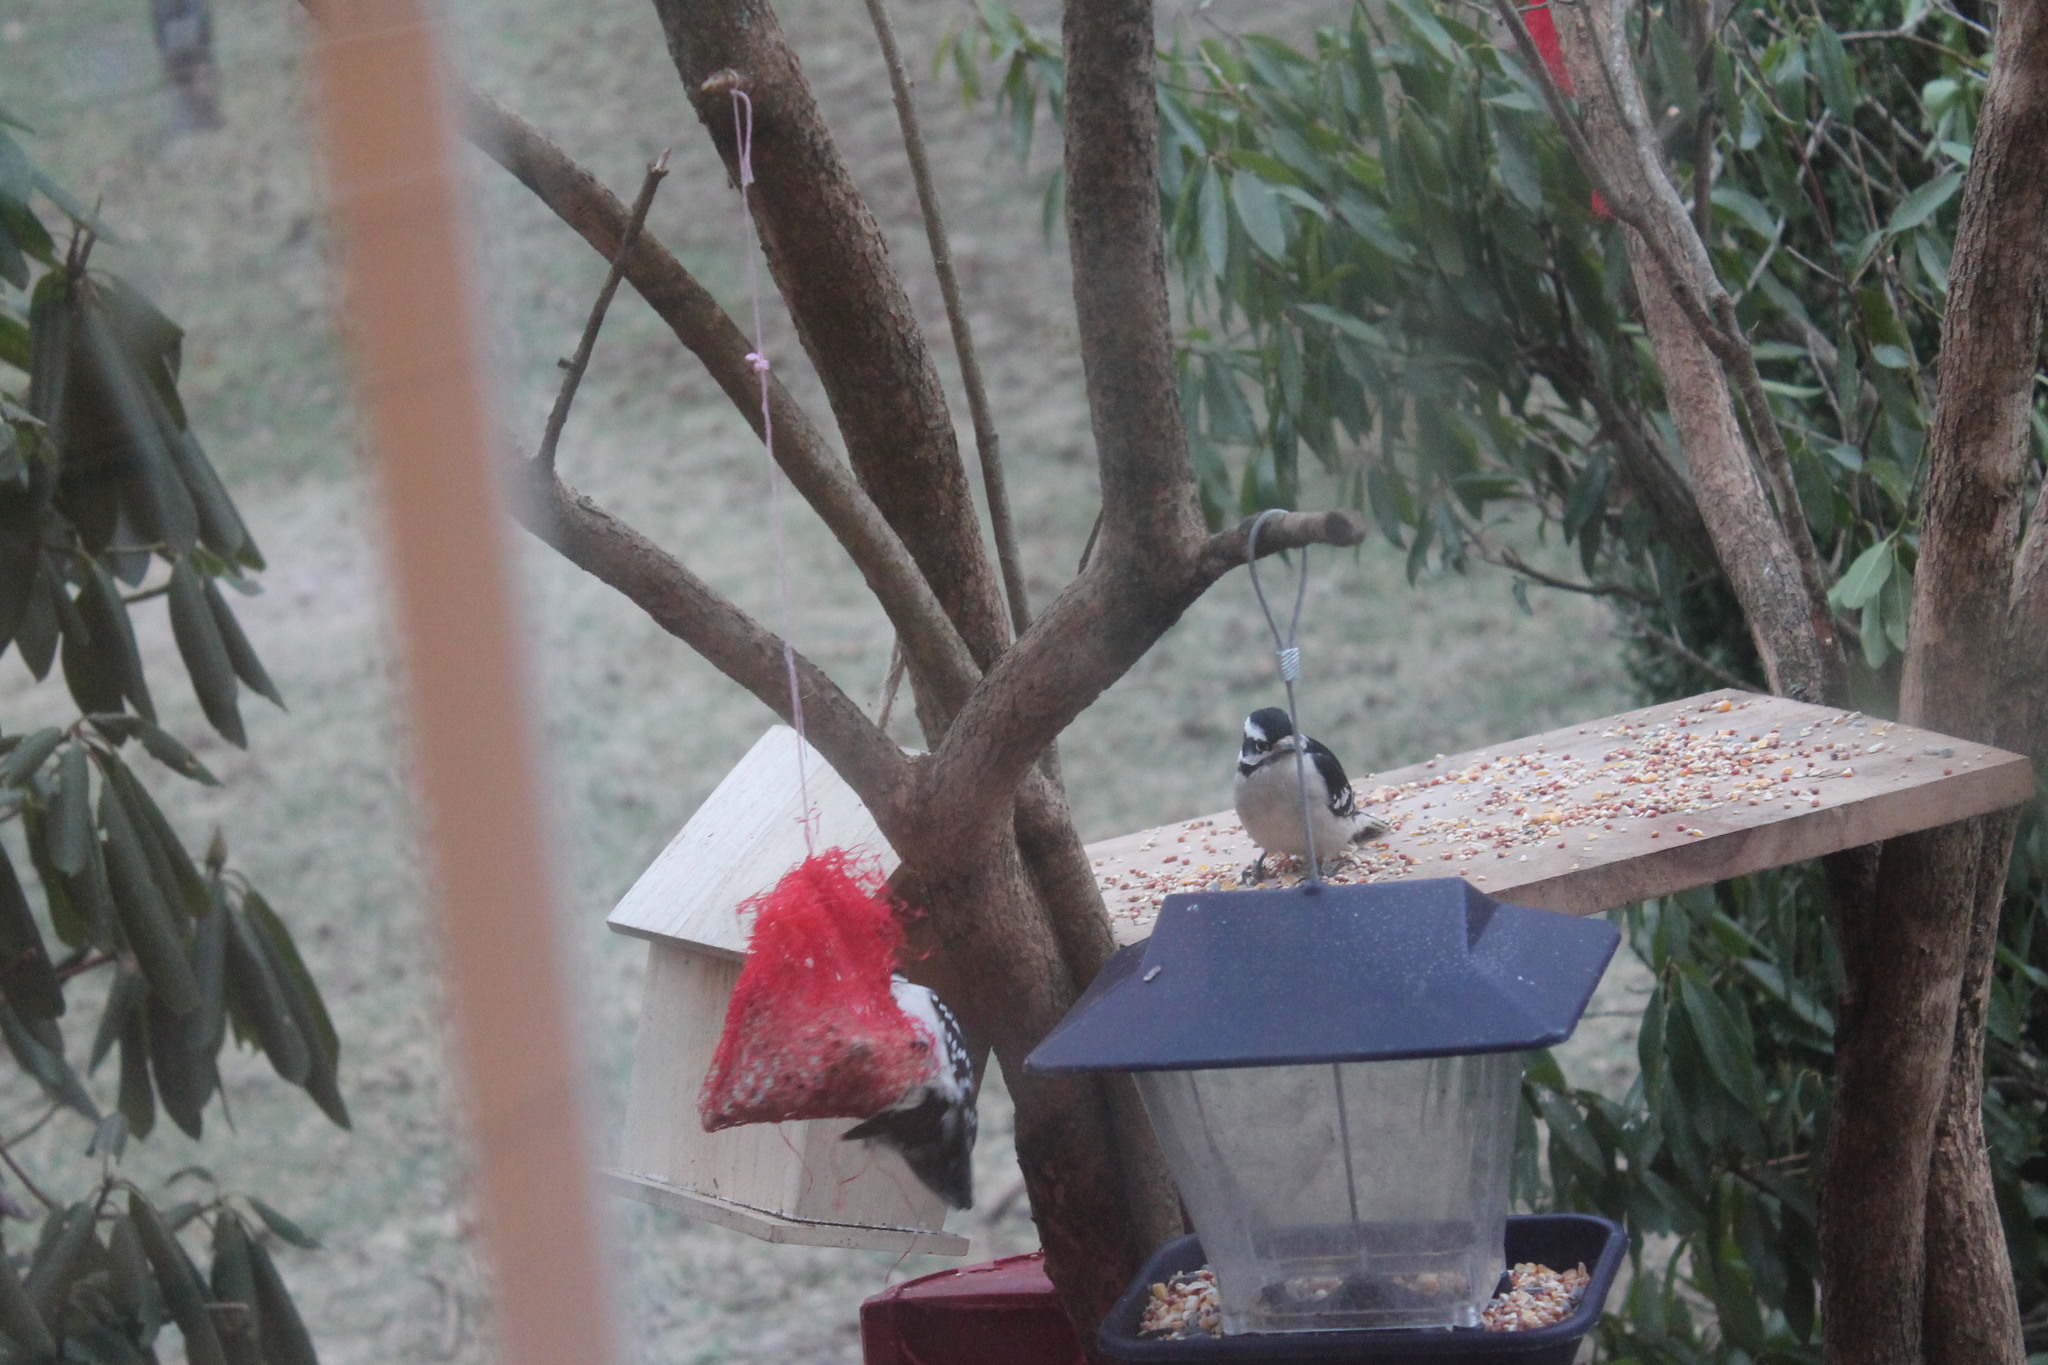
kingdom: Animalia
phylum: Chordata
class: Aves
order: Piciformes
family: Picidae
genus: Dryobates
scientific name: Dryobates pubescens
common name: Downy woodpecker
